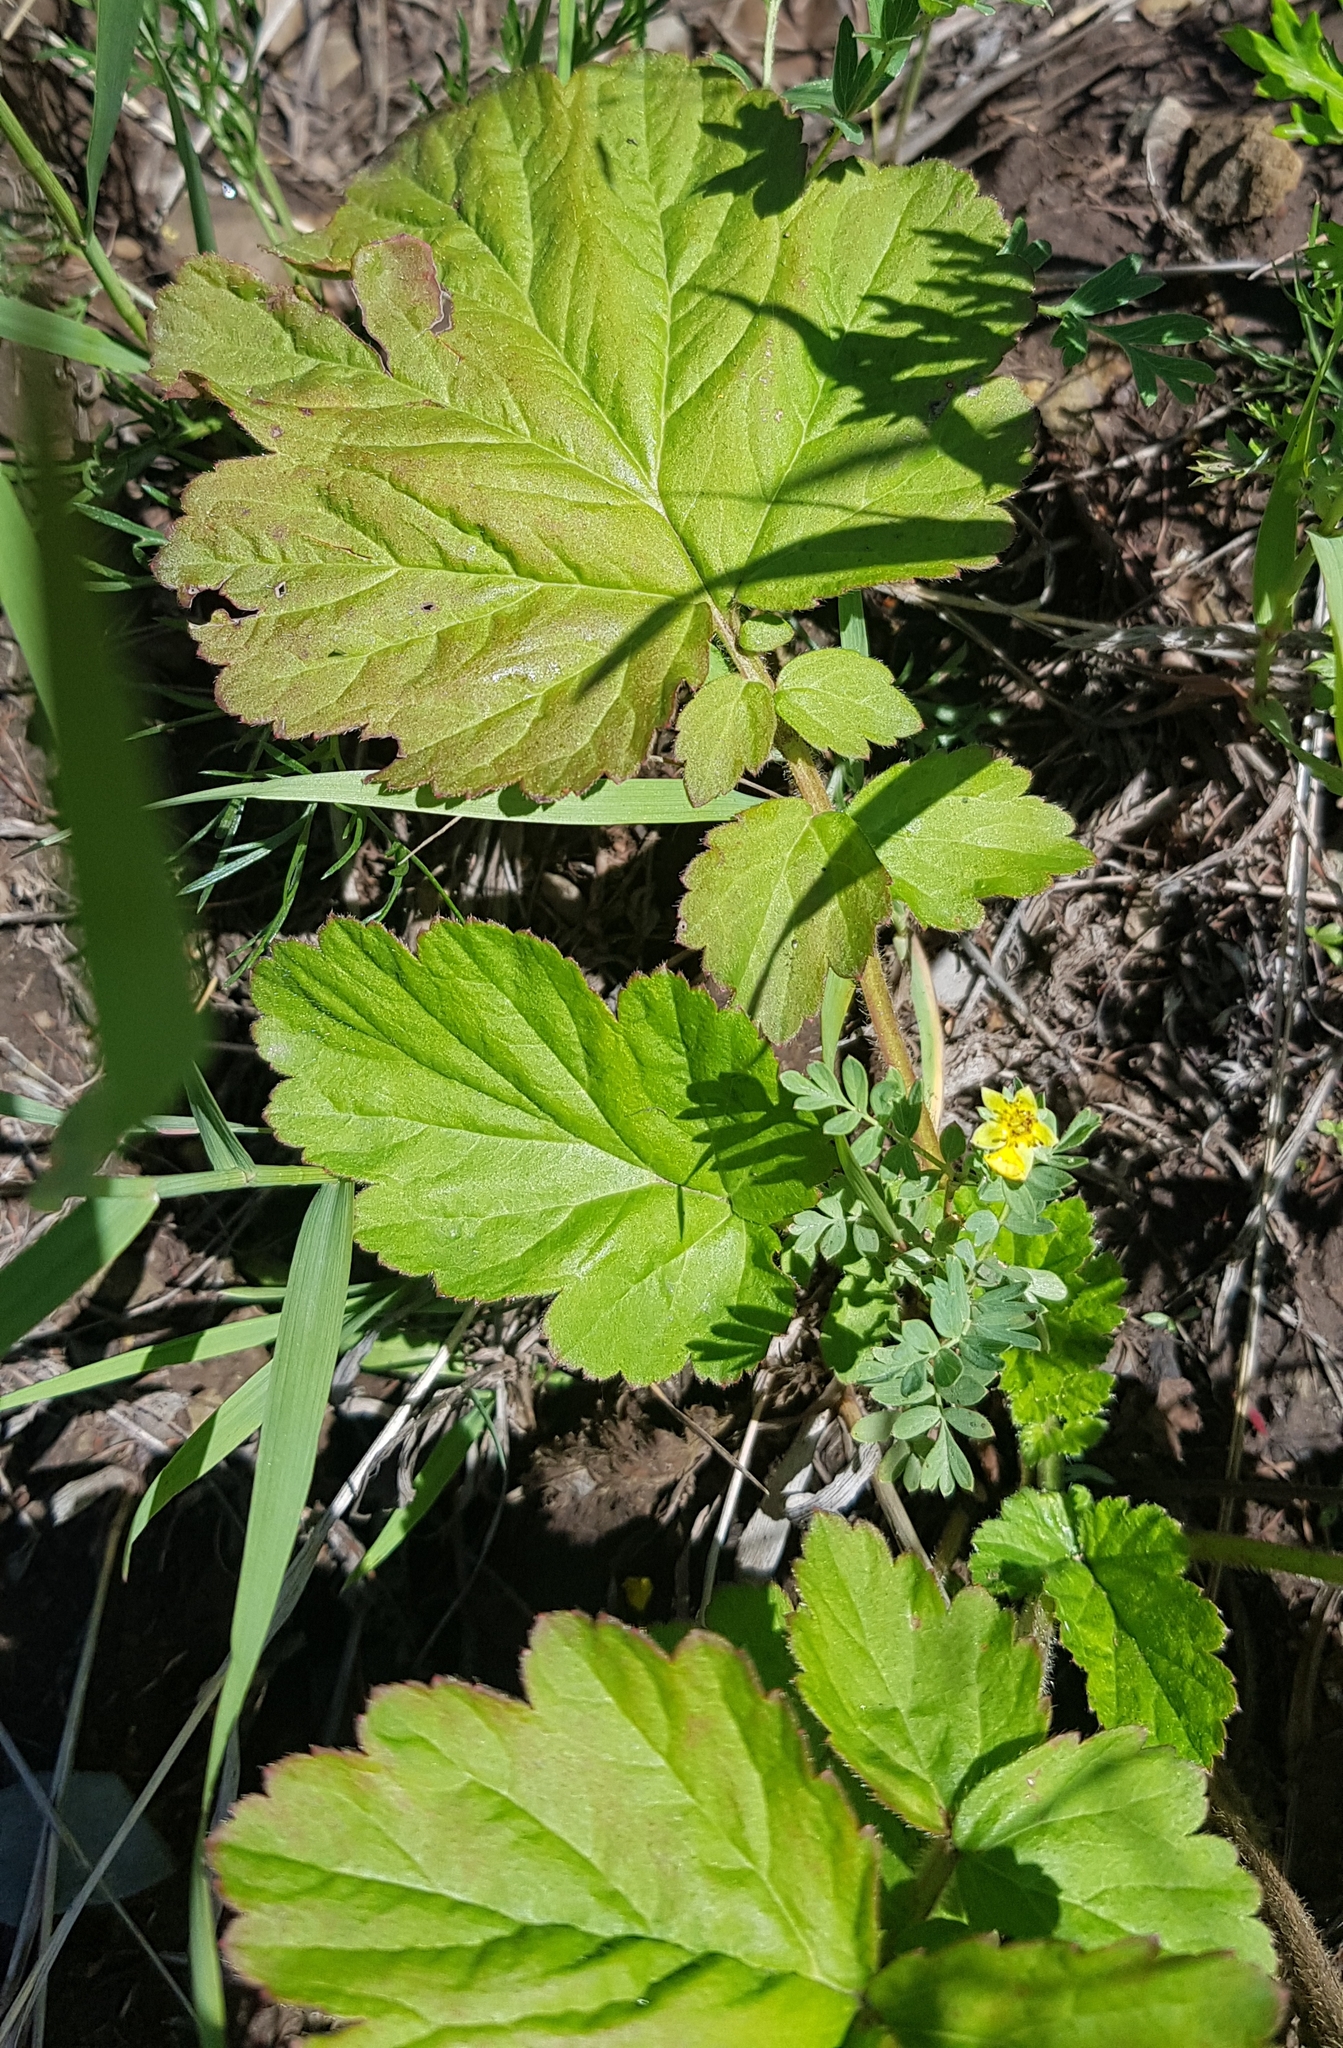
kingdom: Plantae
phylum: Tracheophyta
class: Magnoliopsida
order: Rosales
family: Rosaceae
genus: Geum
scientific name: Geum aleppicum
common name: Yellow avens
